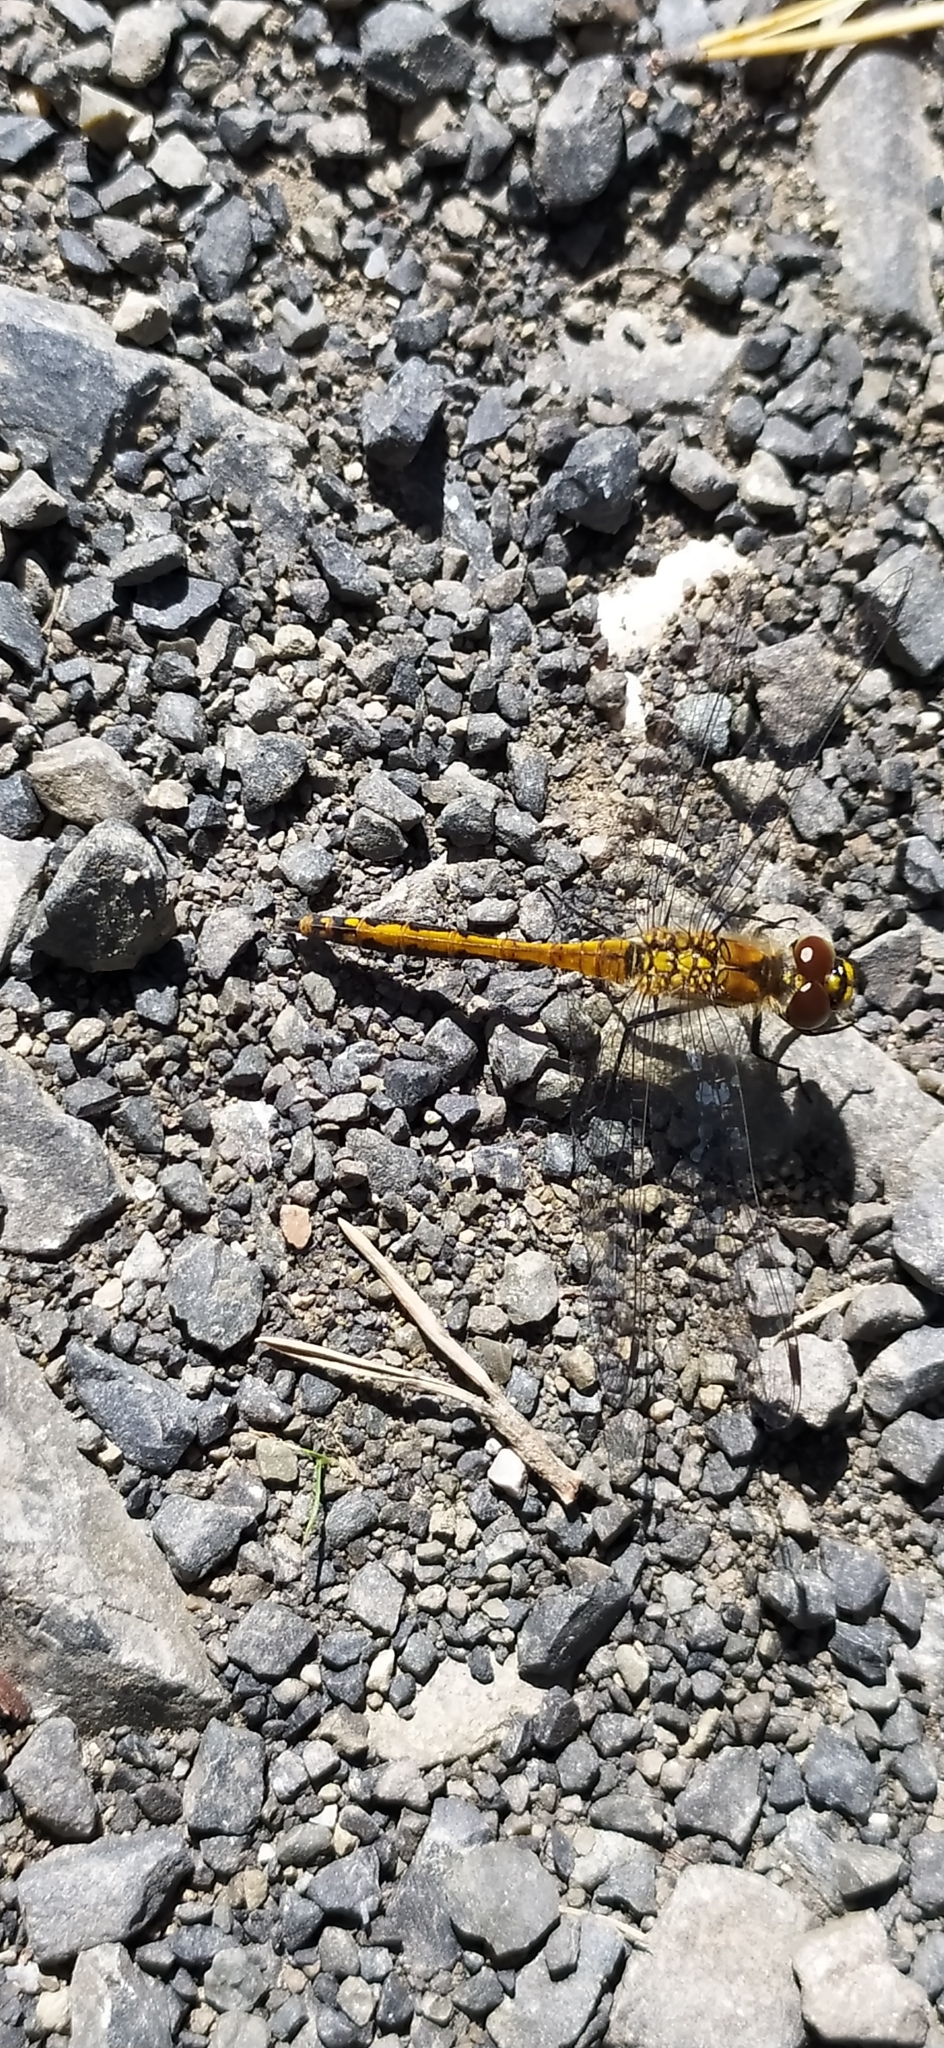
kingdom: Animalia
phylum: Arthropoda
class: Insecta
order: Odonata
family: Libellulidae
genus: Sympetrum
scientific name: Sympetrum danae
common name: Black darter
